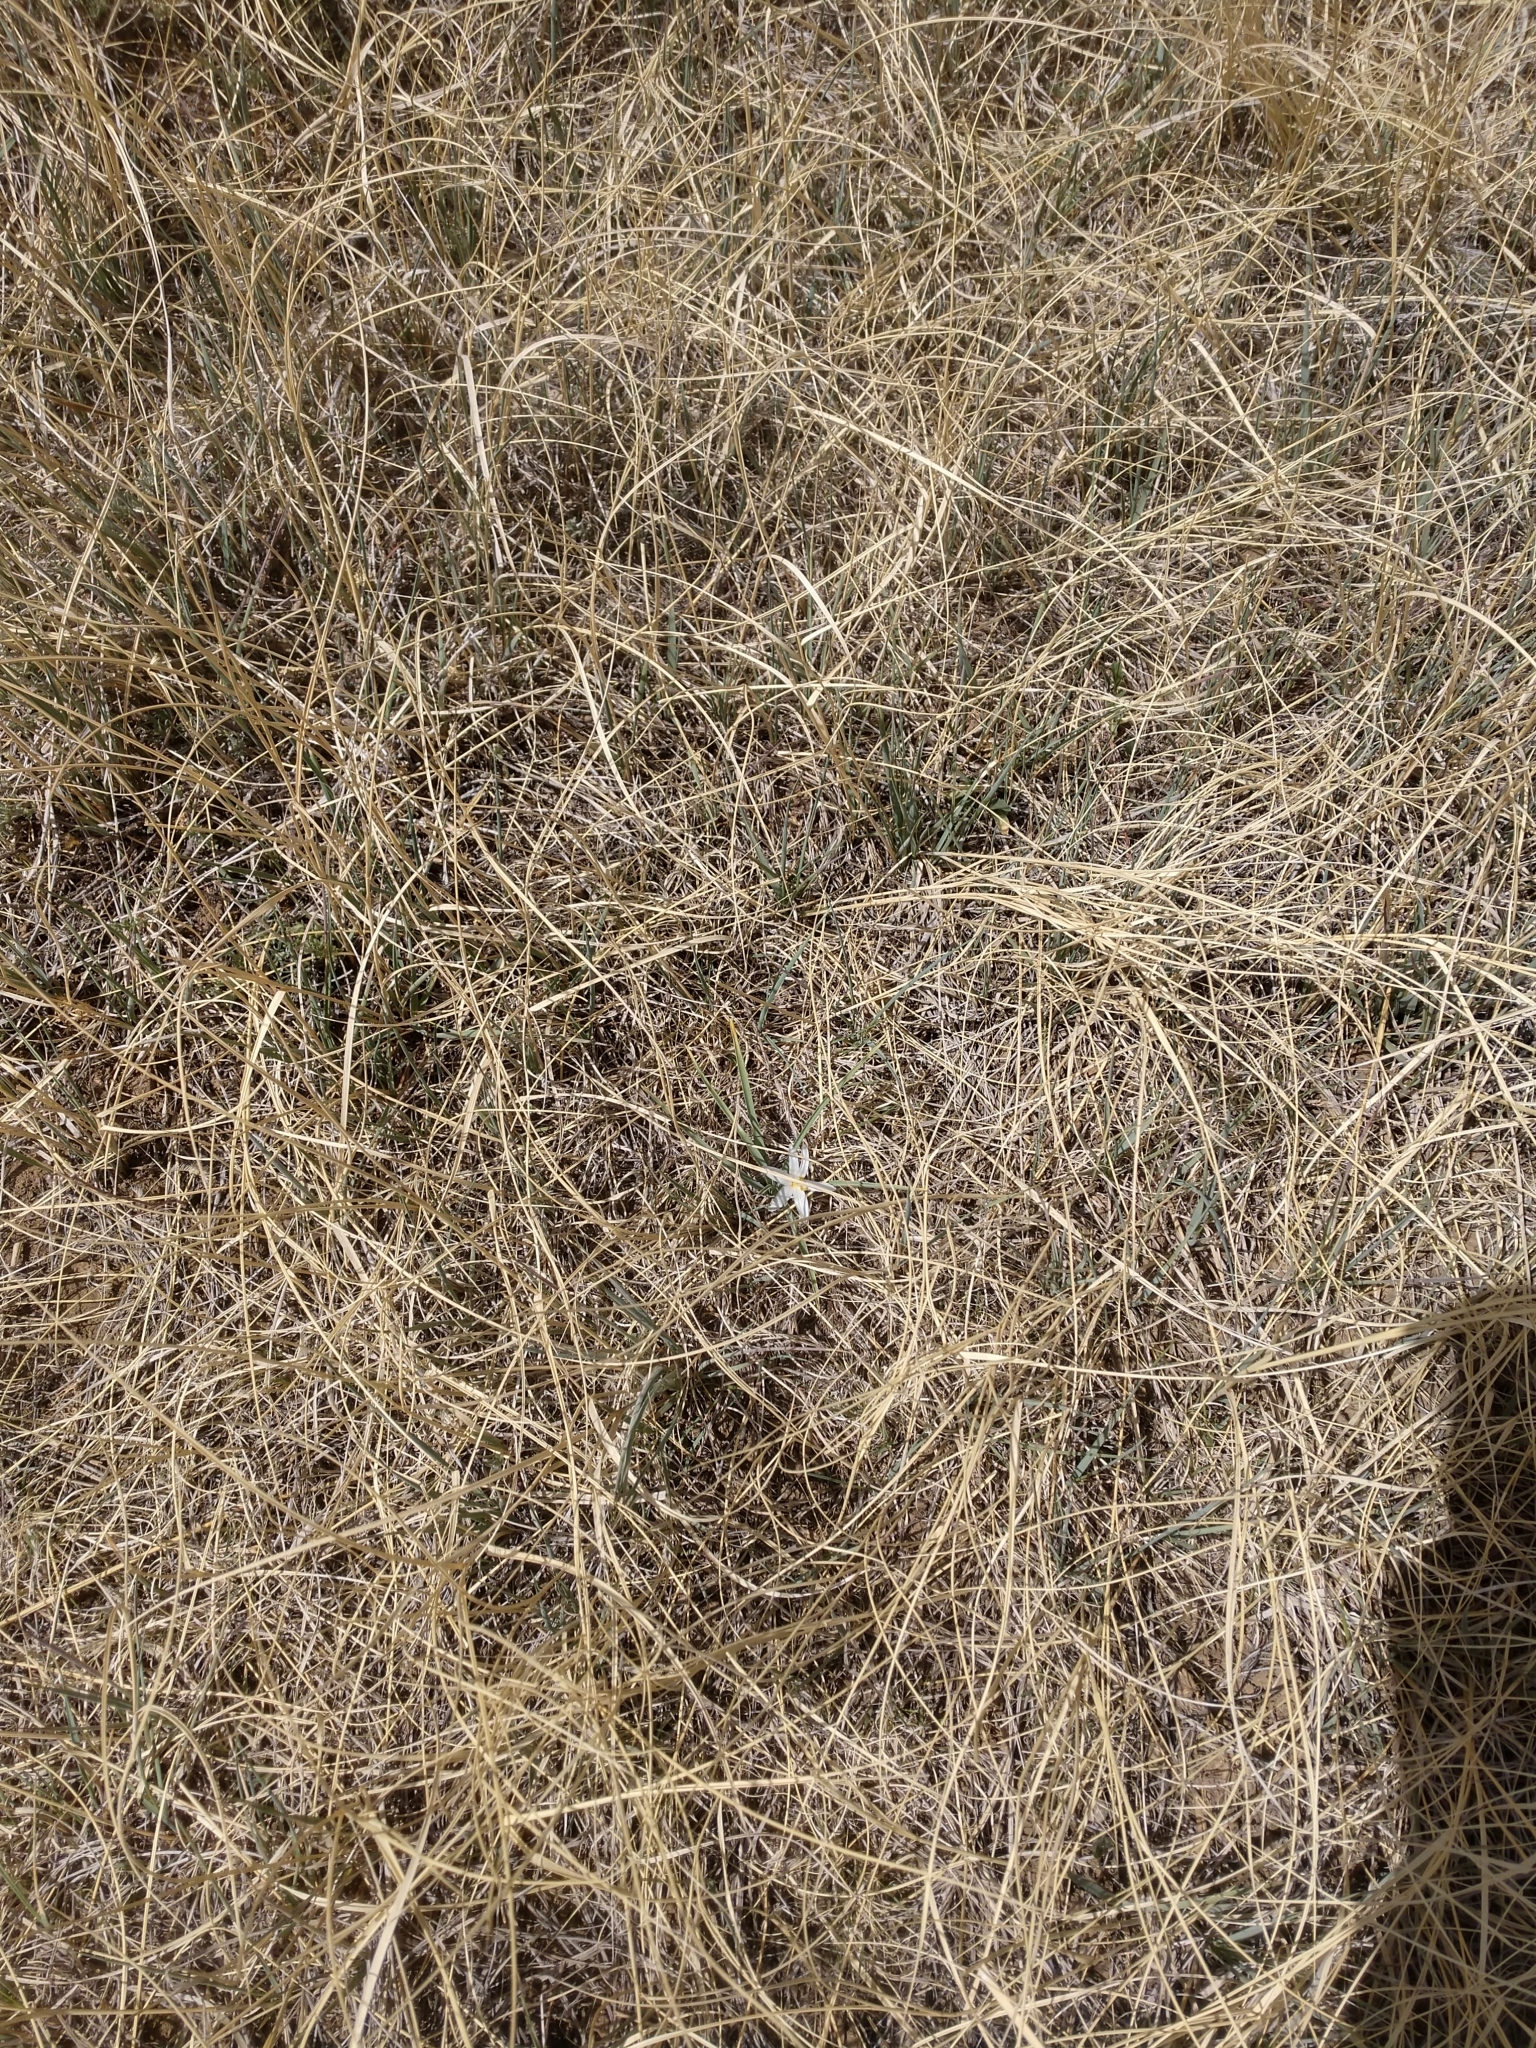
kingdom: Plantae
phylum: Tracheophyta
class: Liliopsida
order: Asparagales
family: Asparagaceae
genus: Leucocrinum
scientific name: Leucocrinum montanum
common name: Mountain-lily
